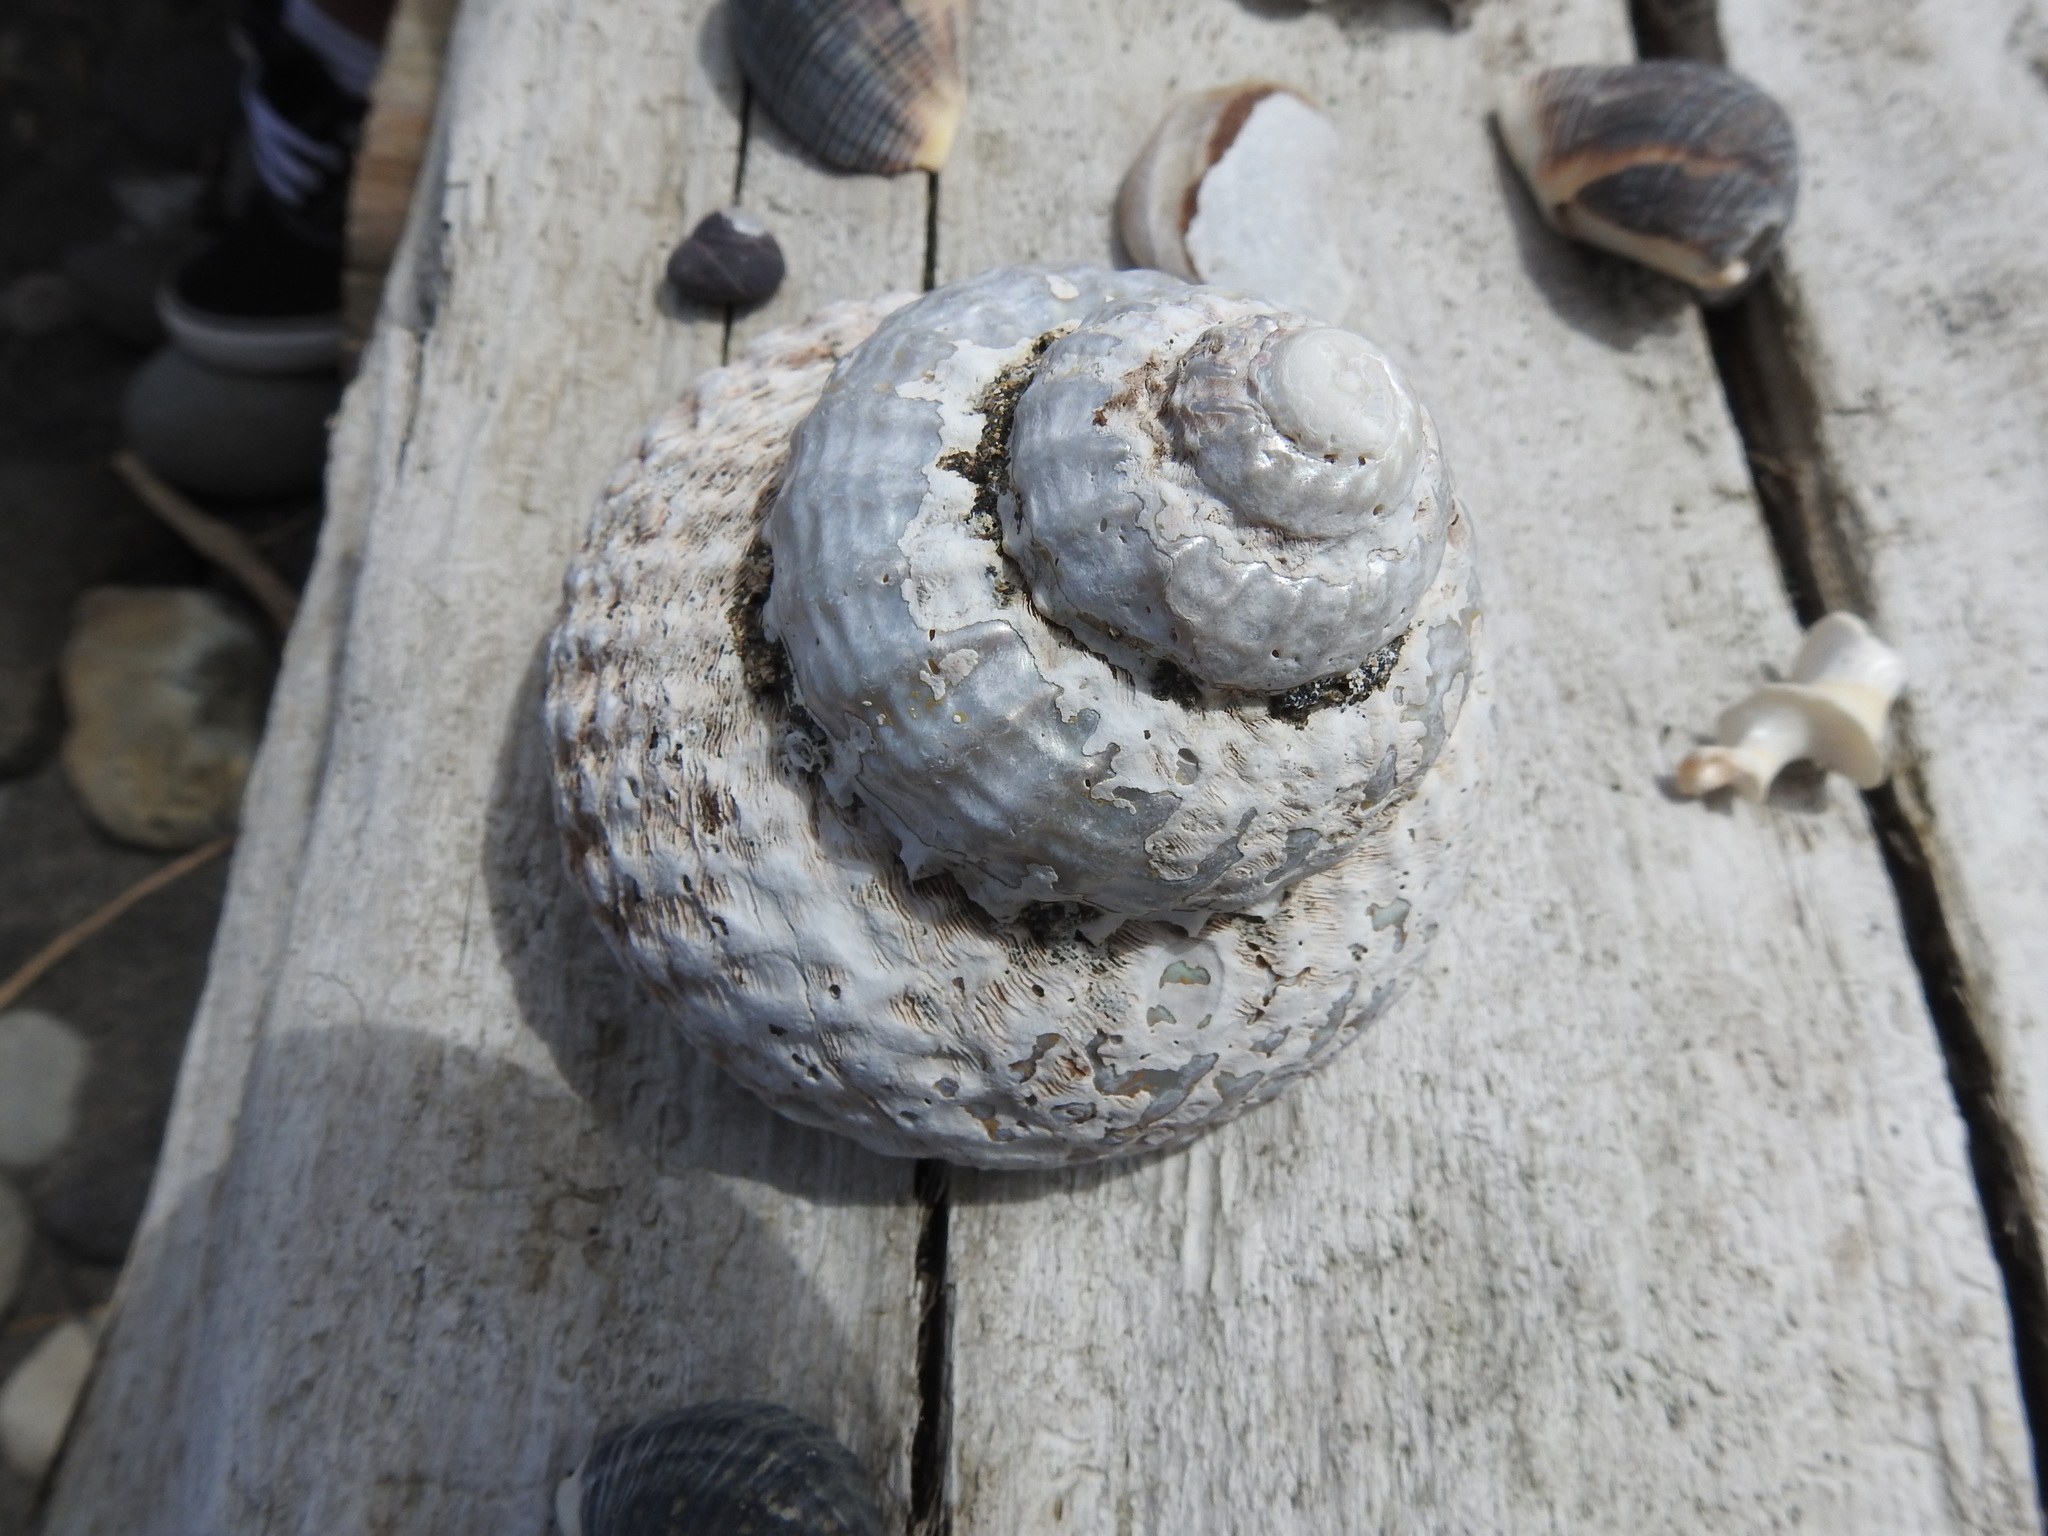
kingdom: Animalia
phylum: Mollusca
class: Gastropoda
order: Trochida
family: Turbinidae
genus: Cookia
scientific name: Cookia sulcata
